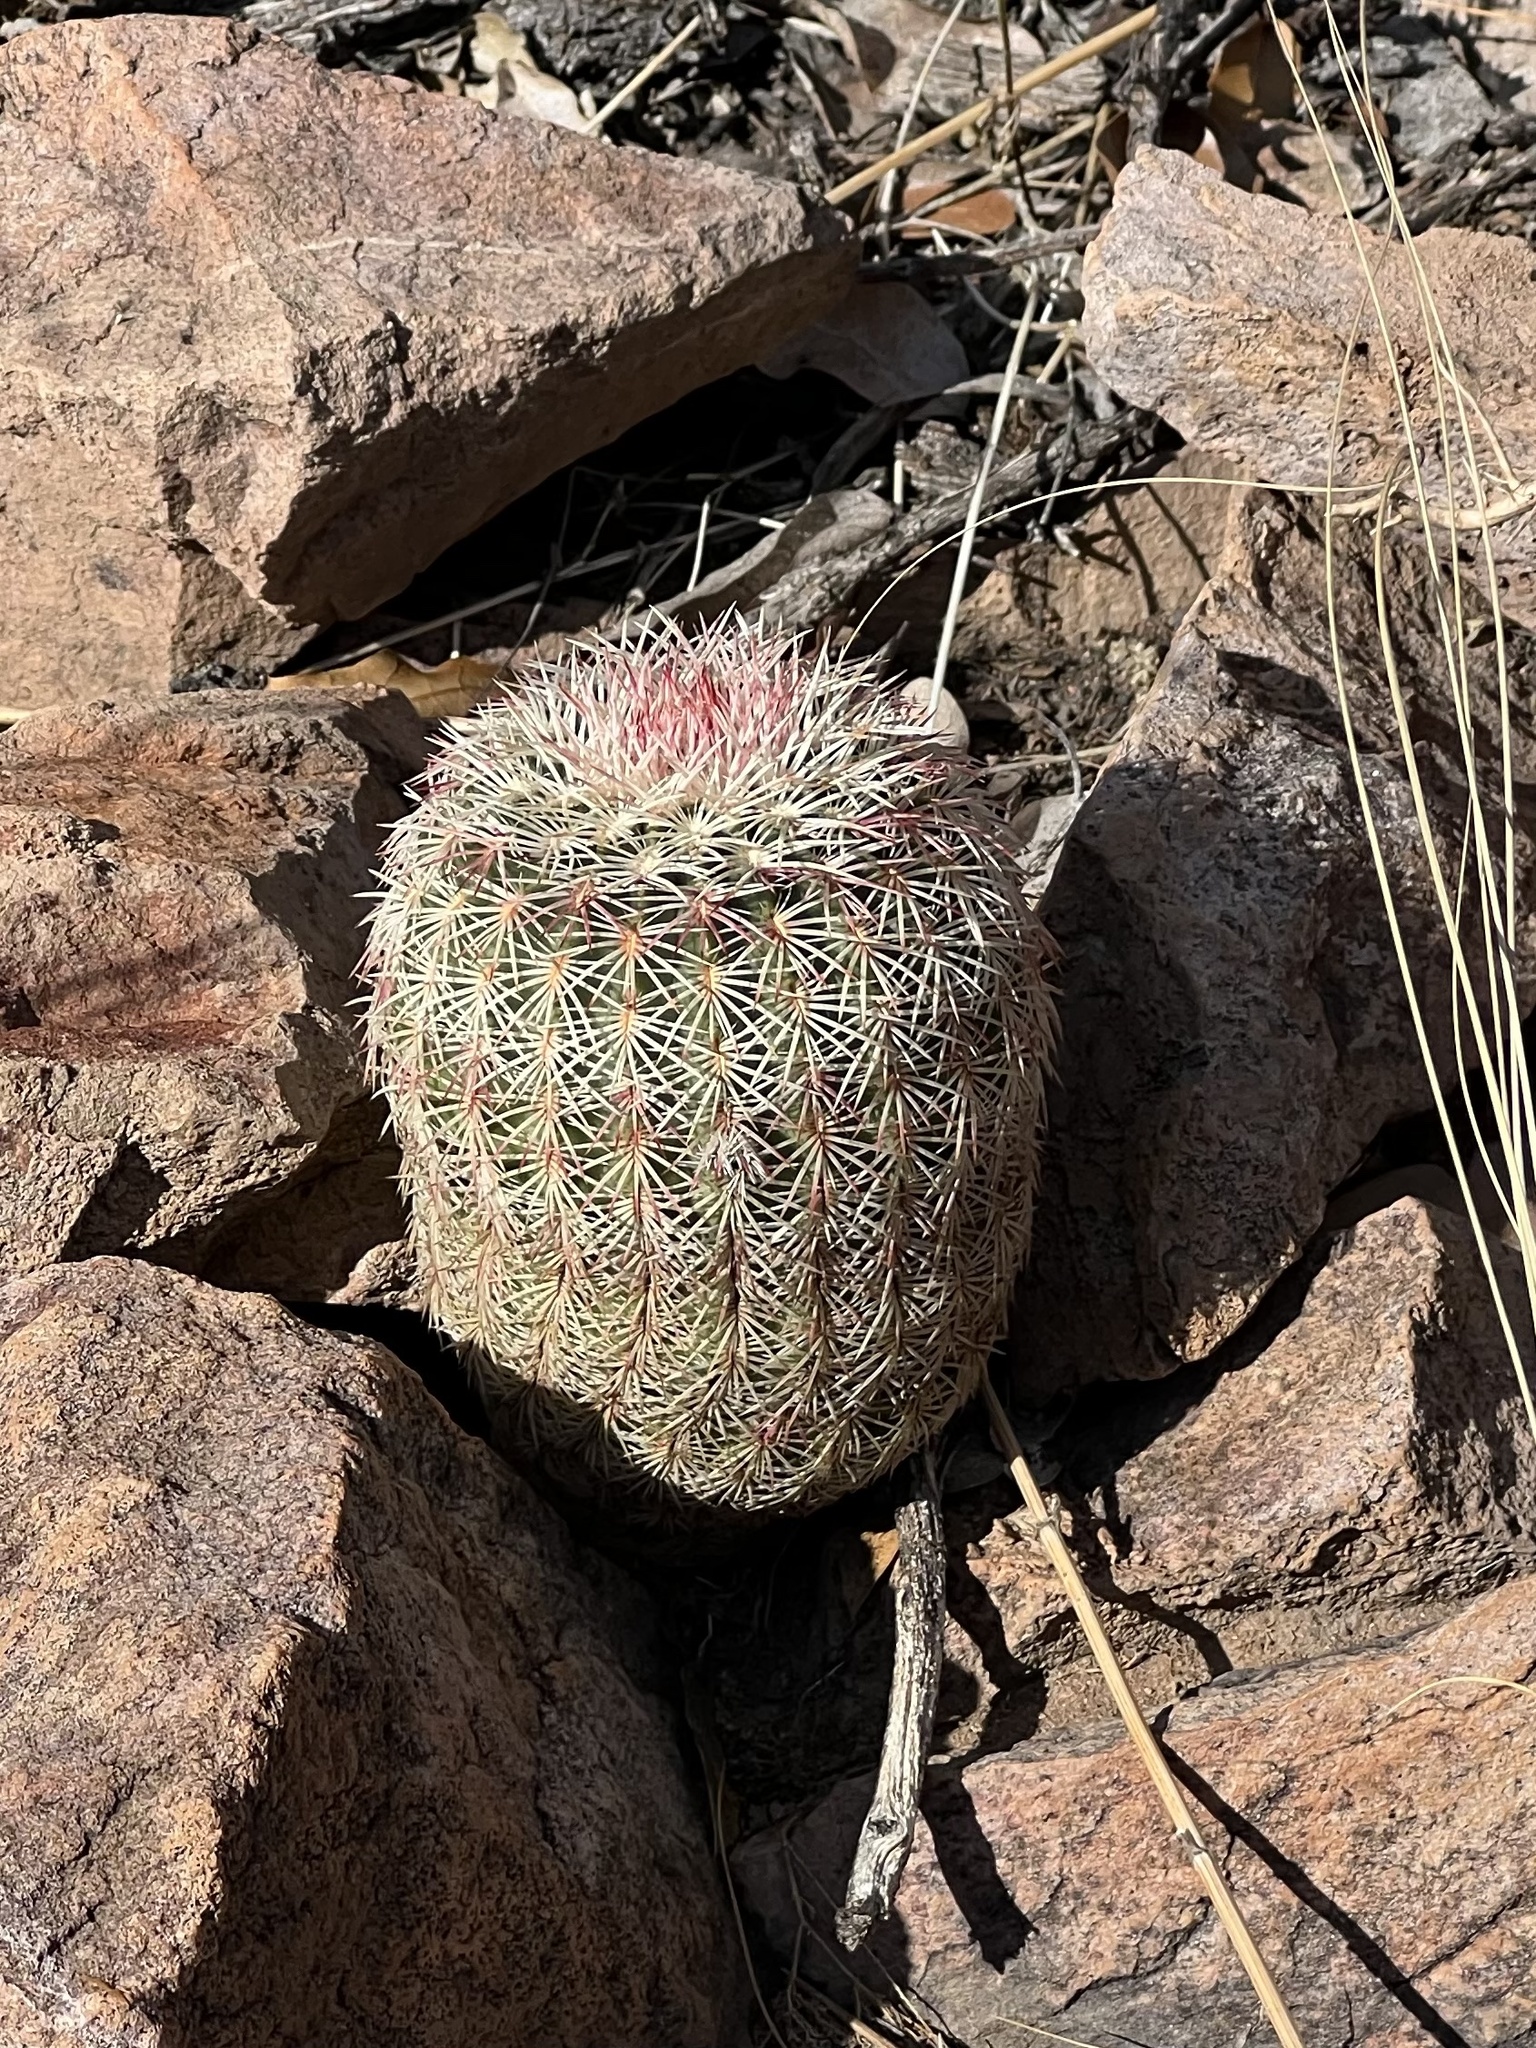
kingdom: Plantae
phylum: Tracheophyta
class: Magnoliopsida
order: Caryophyllales
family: Cactaceae
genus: Echinocereus
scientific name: Echinocereus rigidissimus
